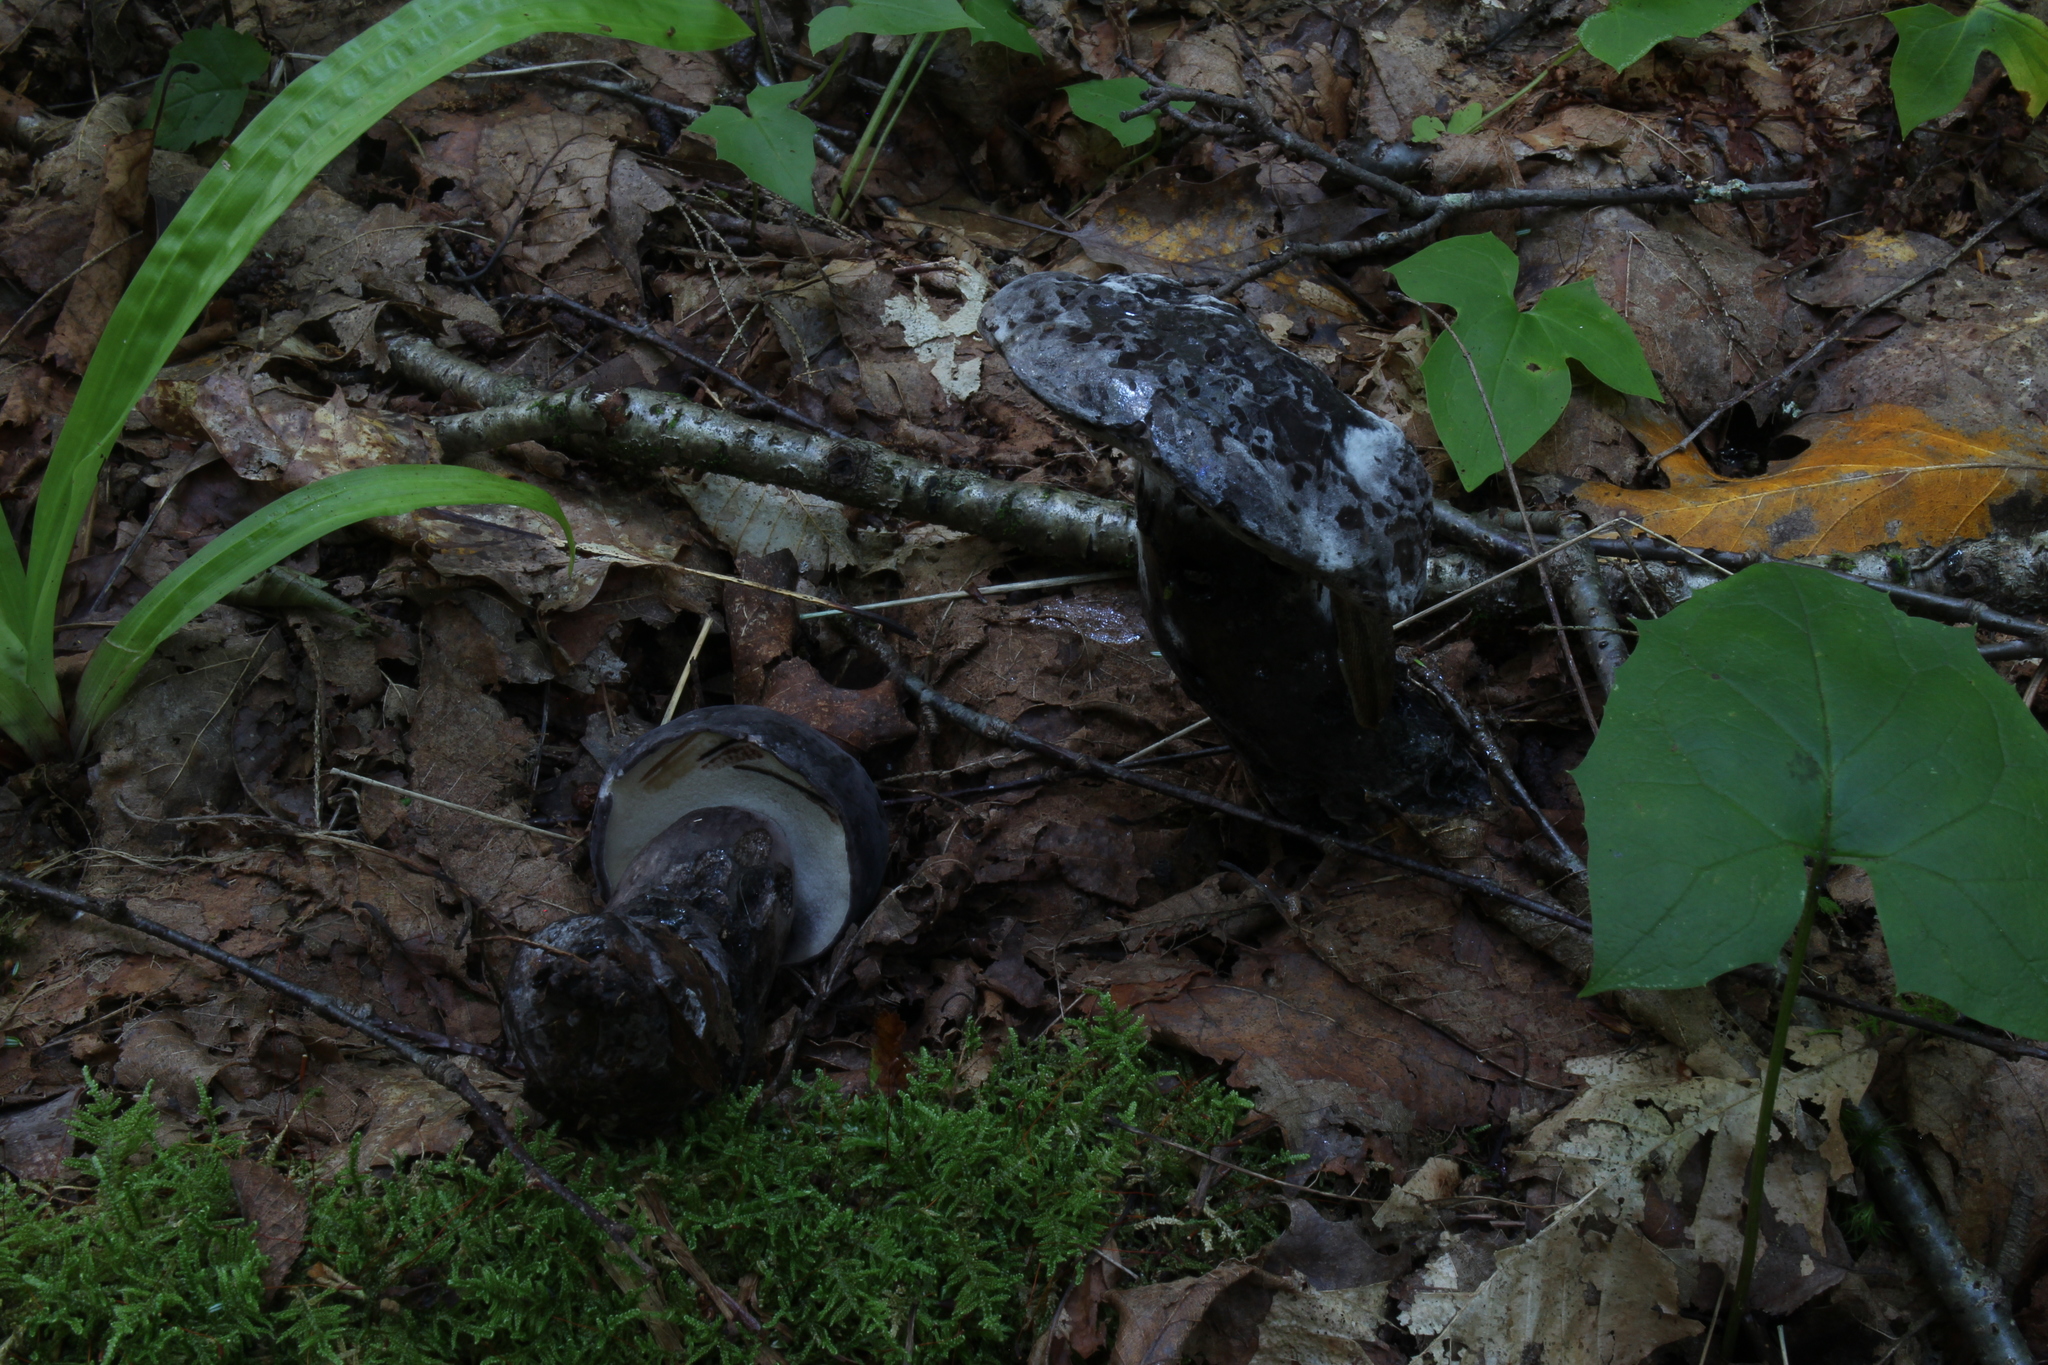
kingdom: Fungi
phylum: Basidiomycota
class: Agaricomycetes
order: Boletales
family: Boletaceae
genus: Tylopilus
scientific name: Tylopilus alboater
